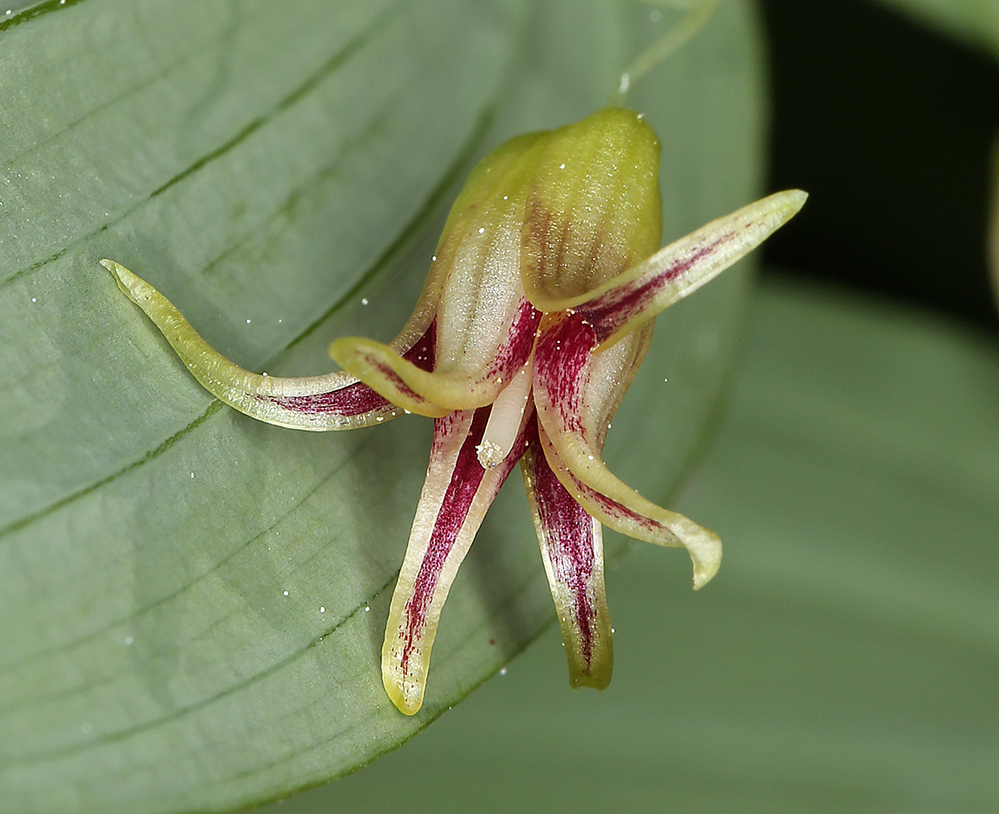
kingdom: Plantae
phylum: Tracheophyta
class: Liliopsida
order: Liliales
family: Liliaceae
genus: Streptopus
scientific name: Streptopus amplexifolius
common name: Clasp twisted stalk
